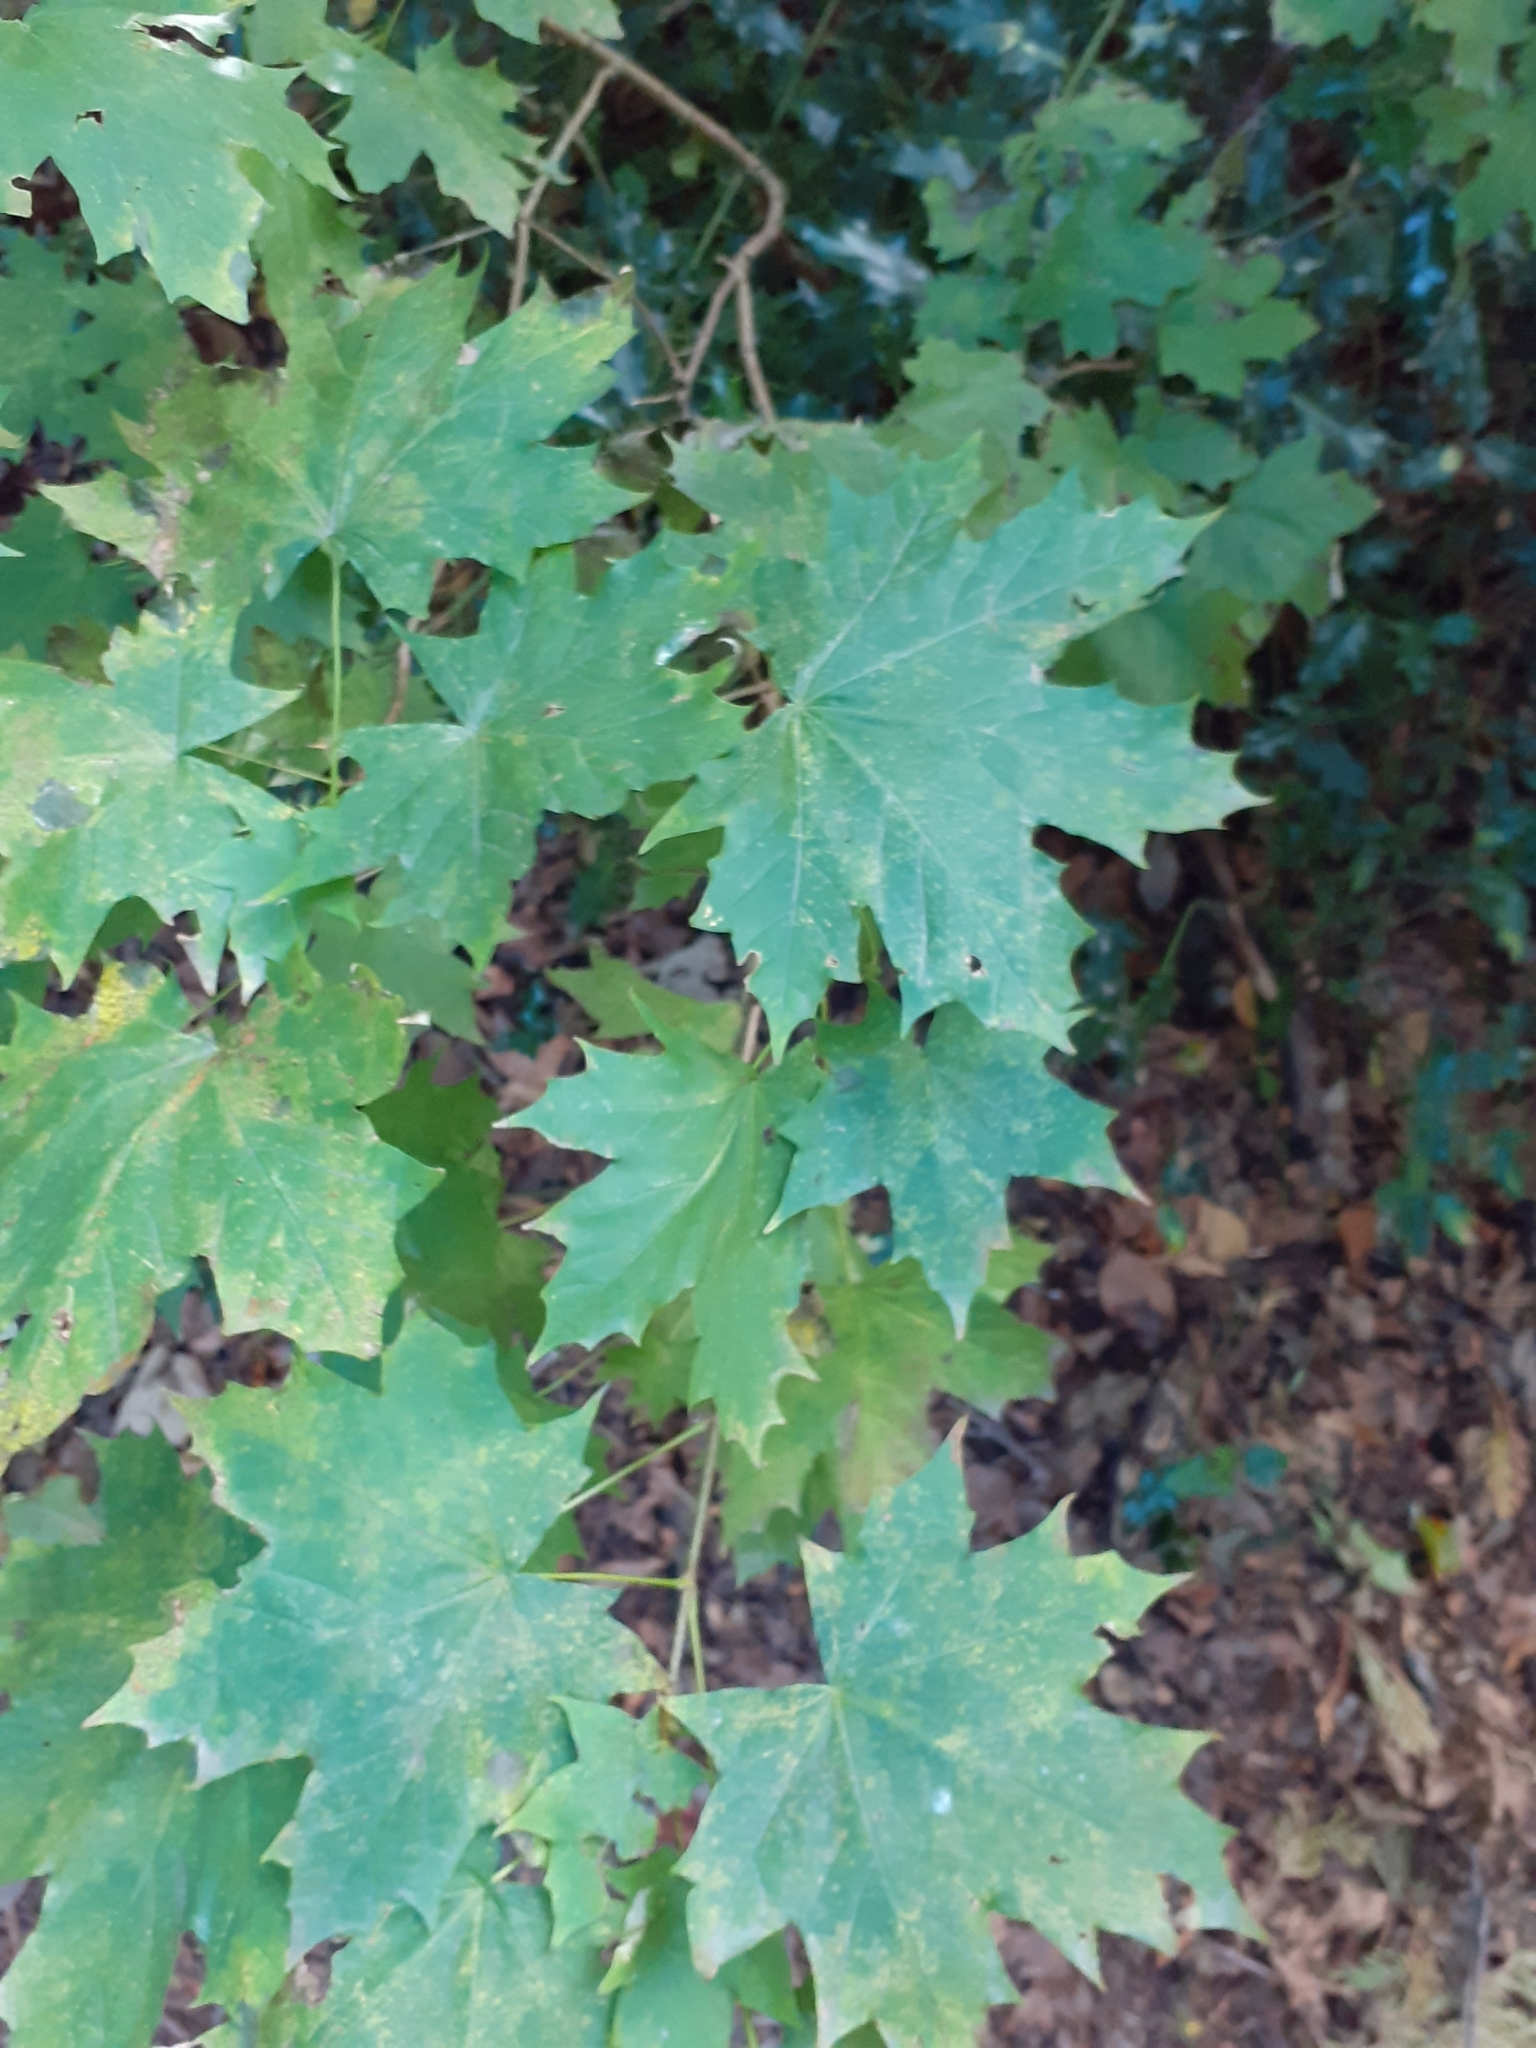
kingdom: Plantae
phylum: Tracheophyta
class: Magnoliopsida
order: Sapindales
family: Sapindaceae
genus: Acer
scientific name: Acer platanoides
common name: Norway maple
